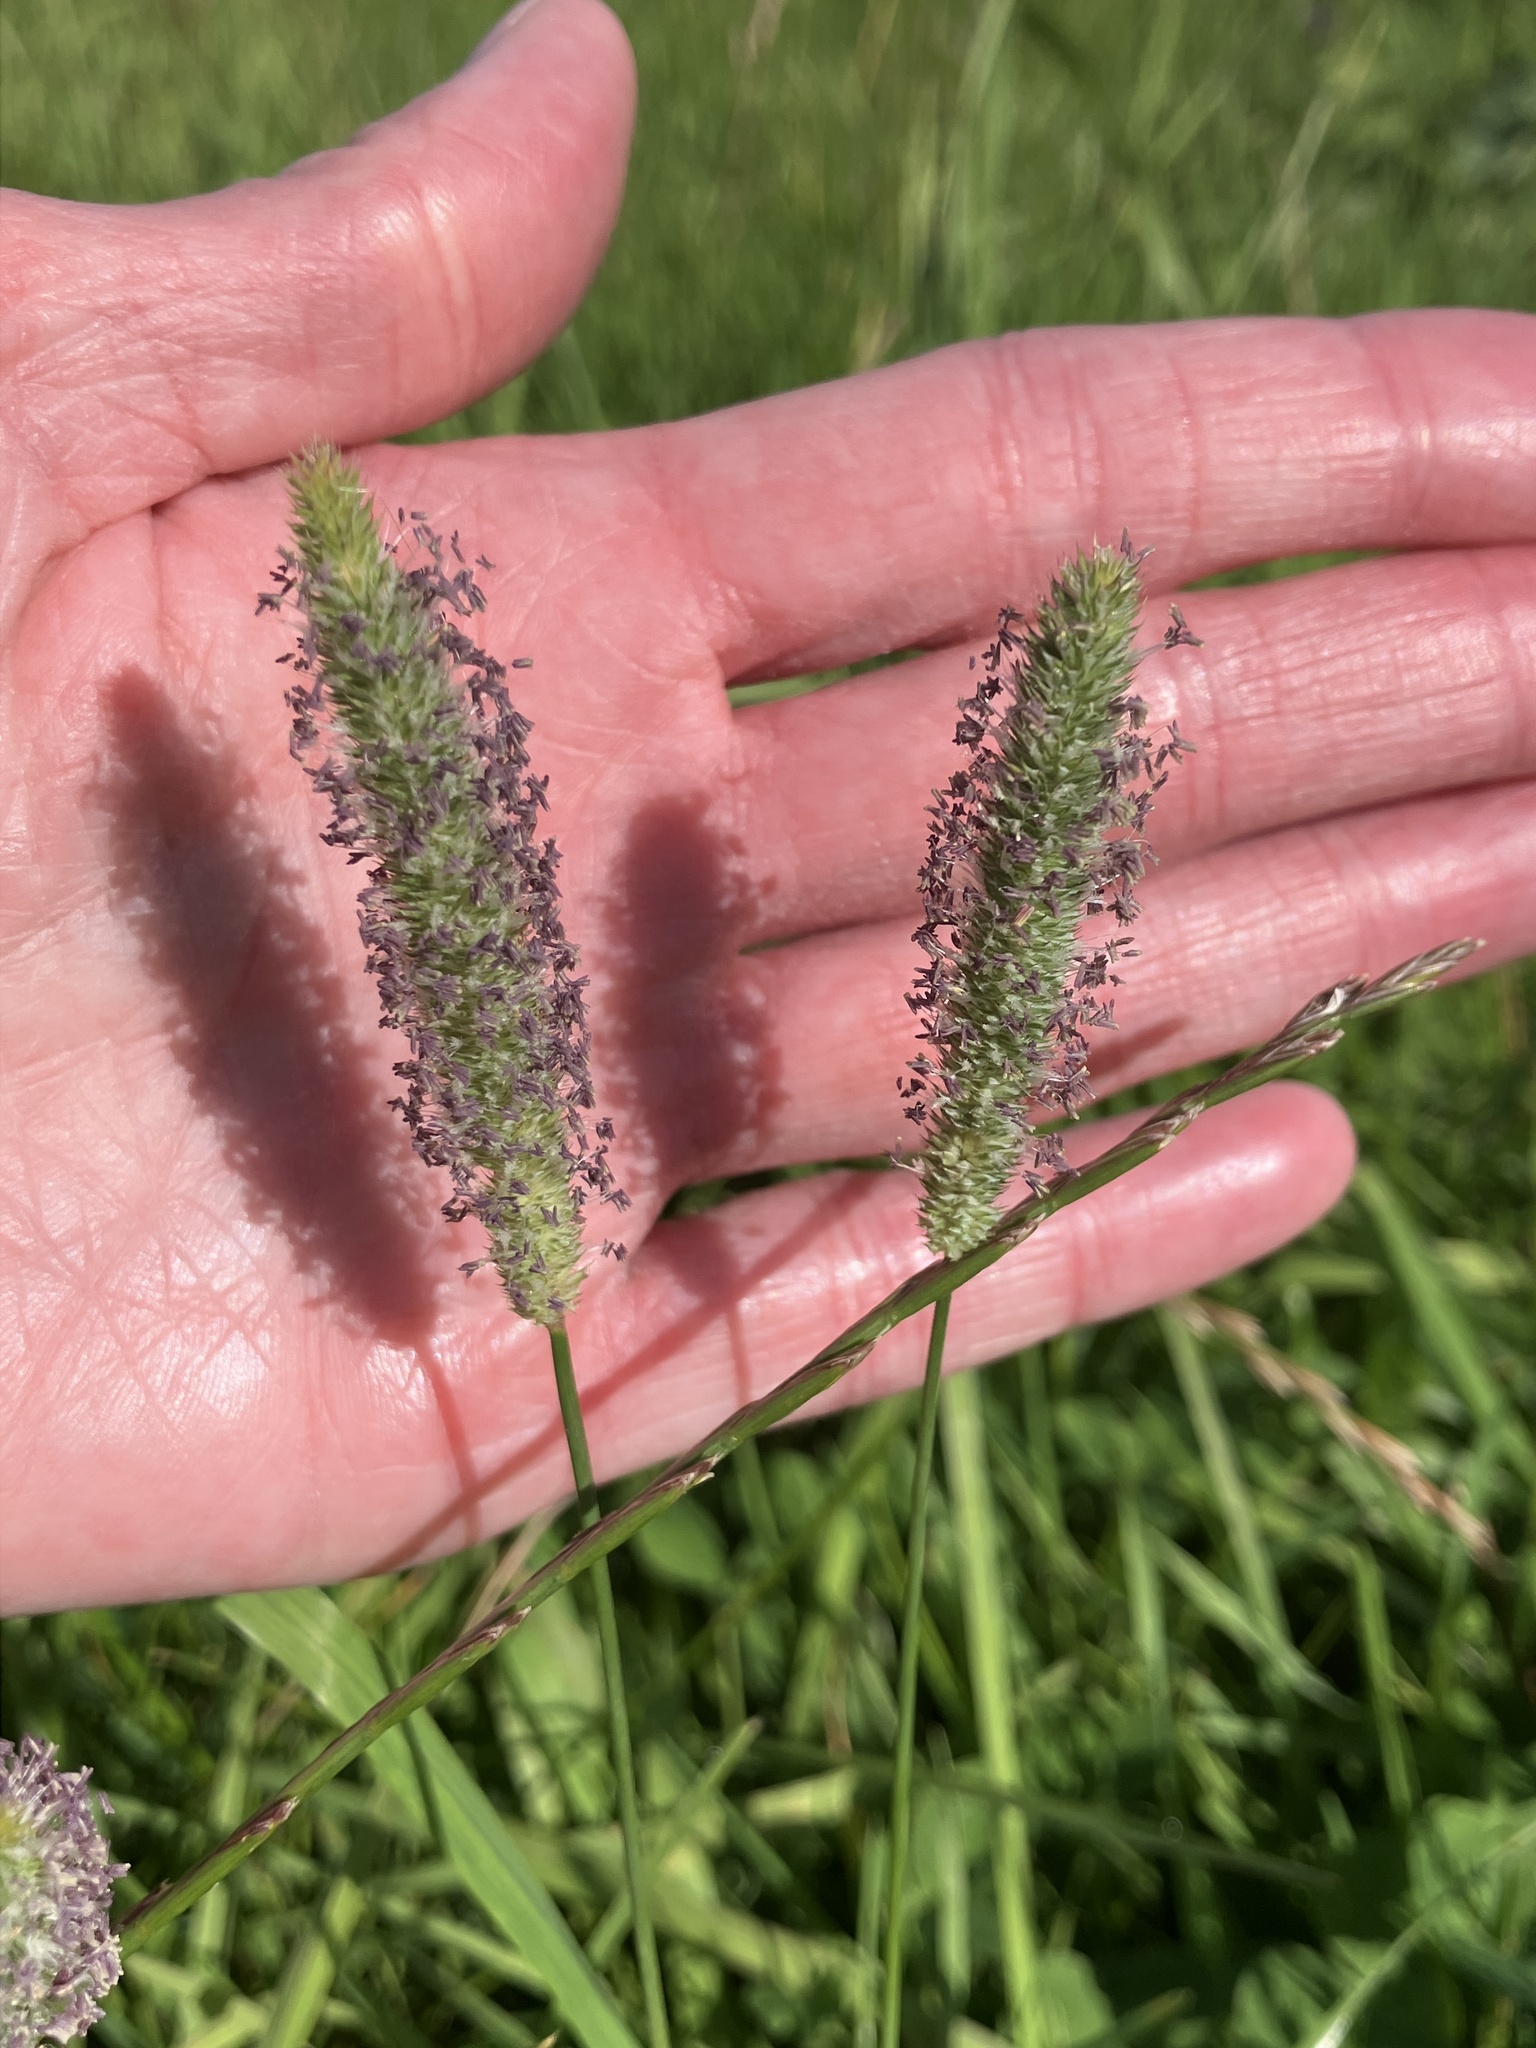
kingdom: Plantae
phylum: Tracheophyta
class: Liliopsida
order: Poales
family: Poaceae
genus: Phleum
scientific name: Phleum pratense
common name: Timothy grass
